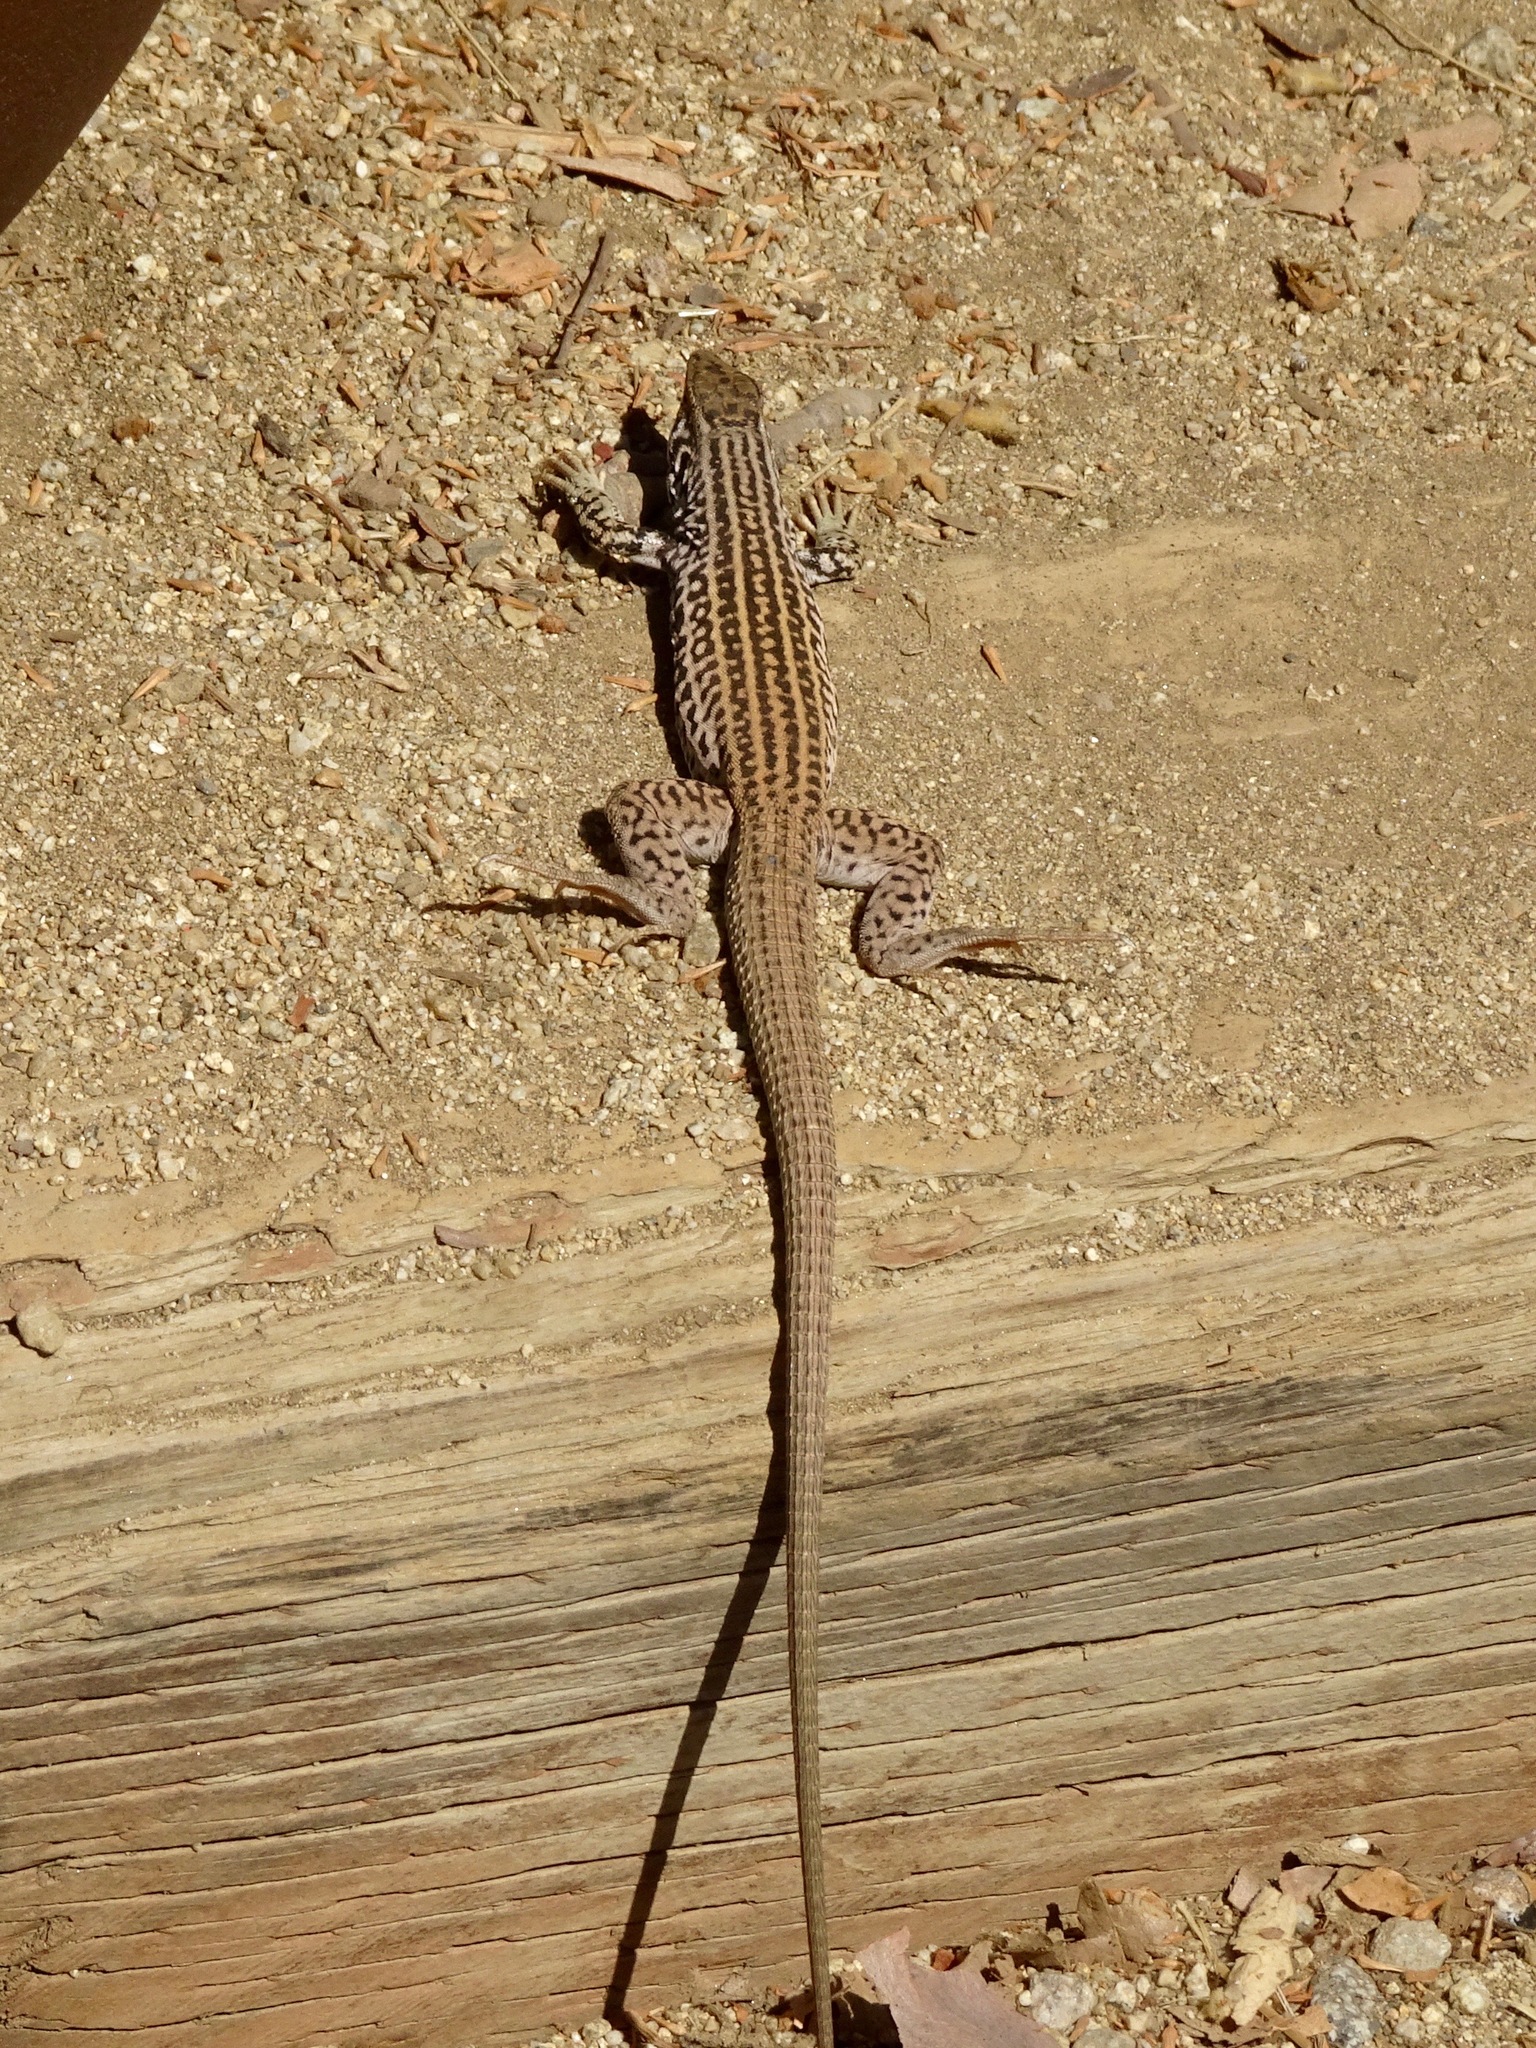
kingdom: Animalia
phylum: Chordata
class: Squamata
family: Teiidae
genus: Aspidoscelis
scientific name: Aspidoscelis tigris
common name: Tiger whiptail
